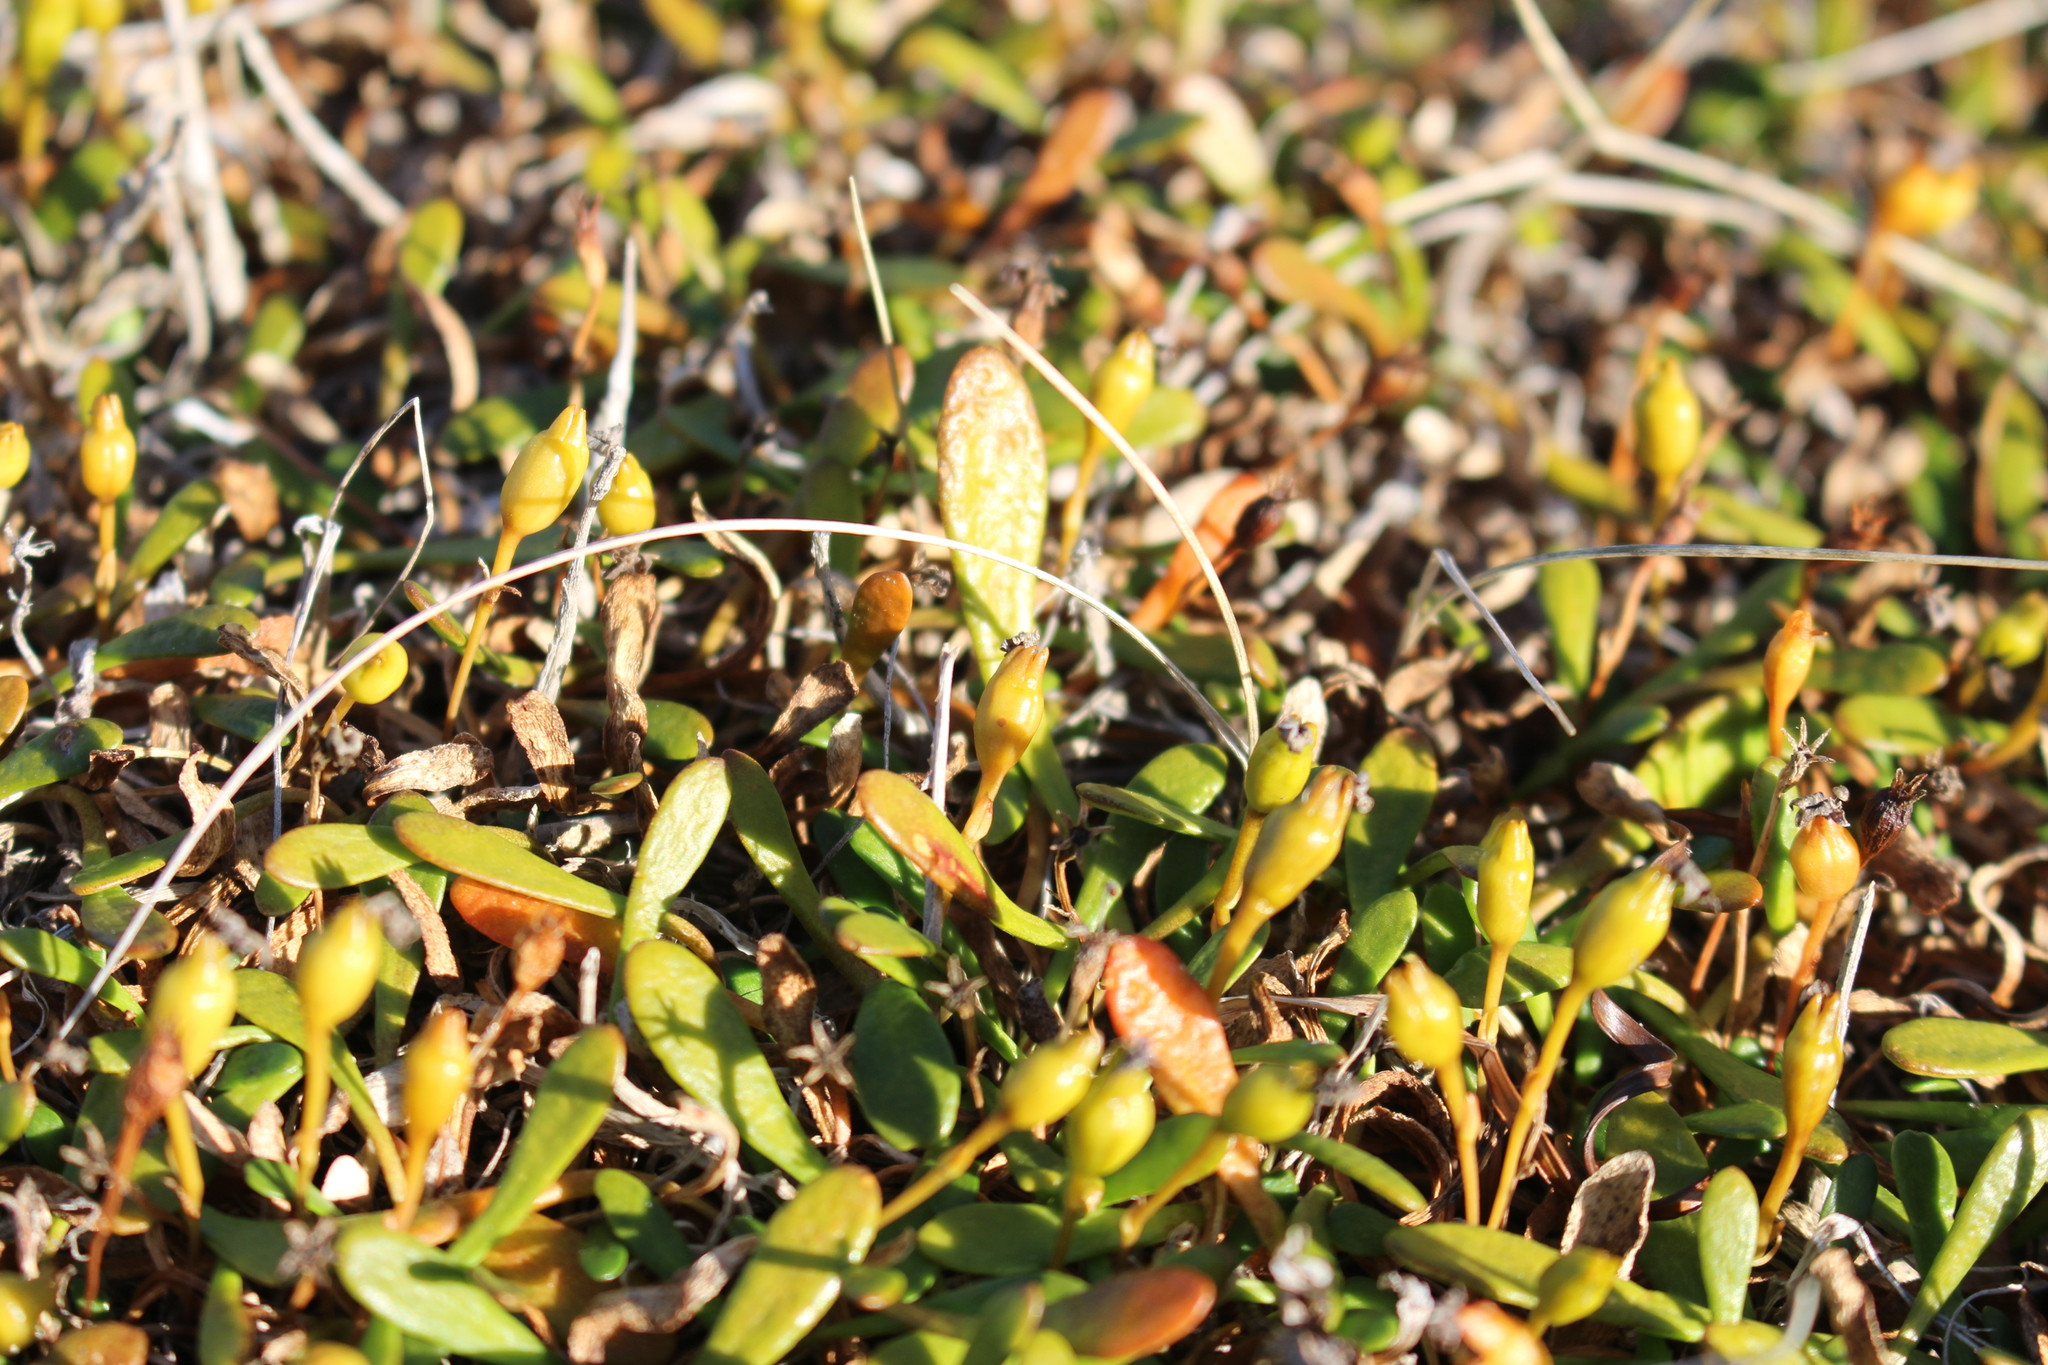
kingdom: Plantae
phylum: Tracheophyta
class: Magnoliopsida
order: Asterales
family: Goodeniaceae
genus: Goodenia
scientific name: Goodenia radicans
